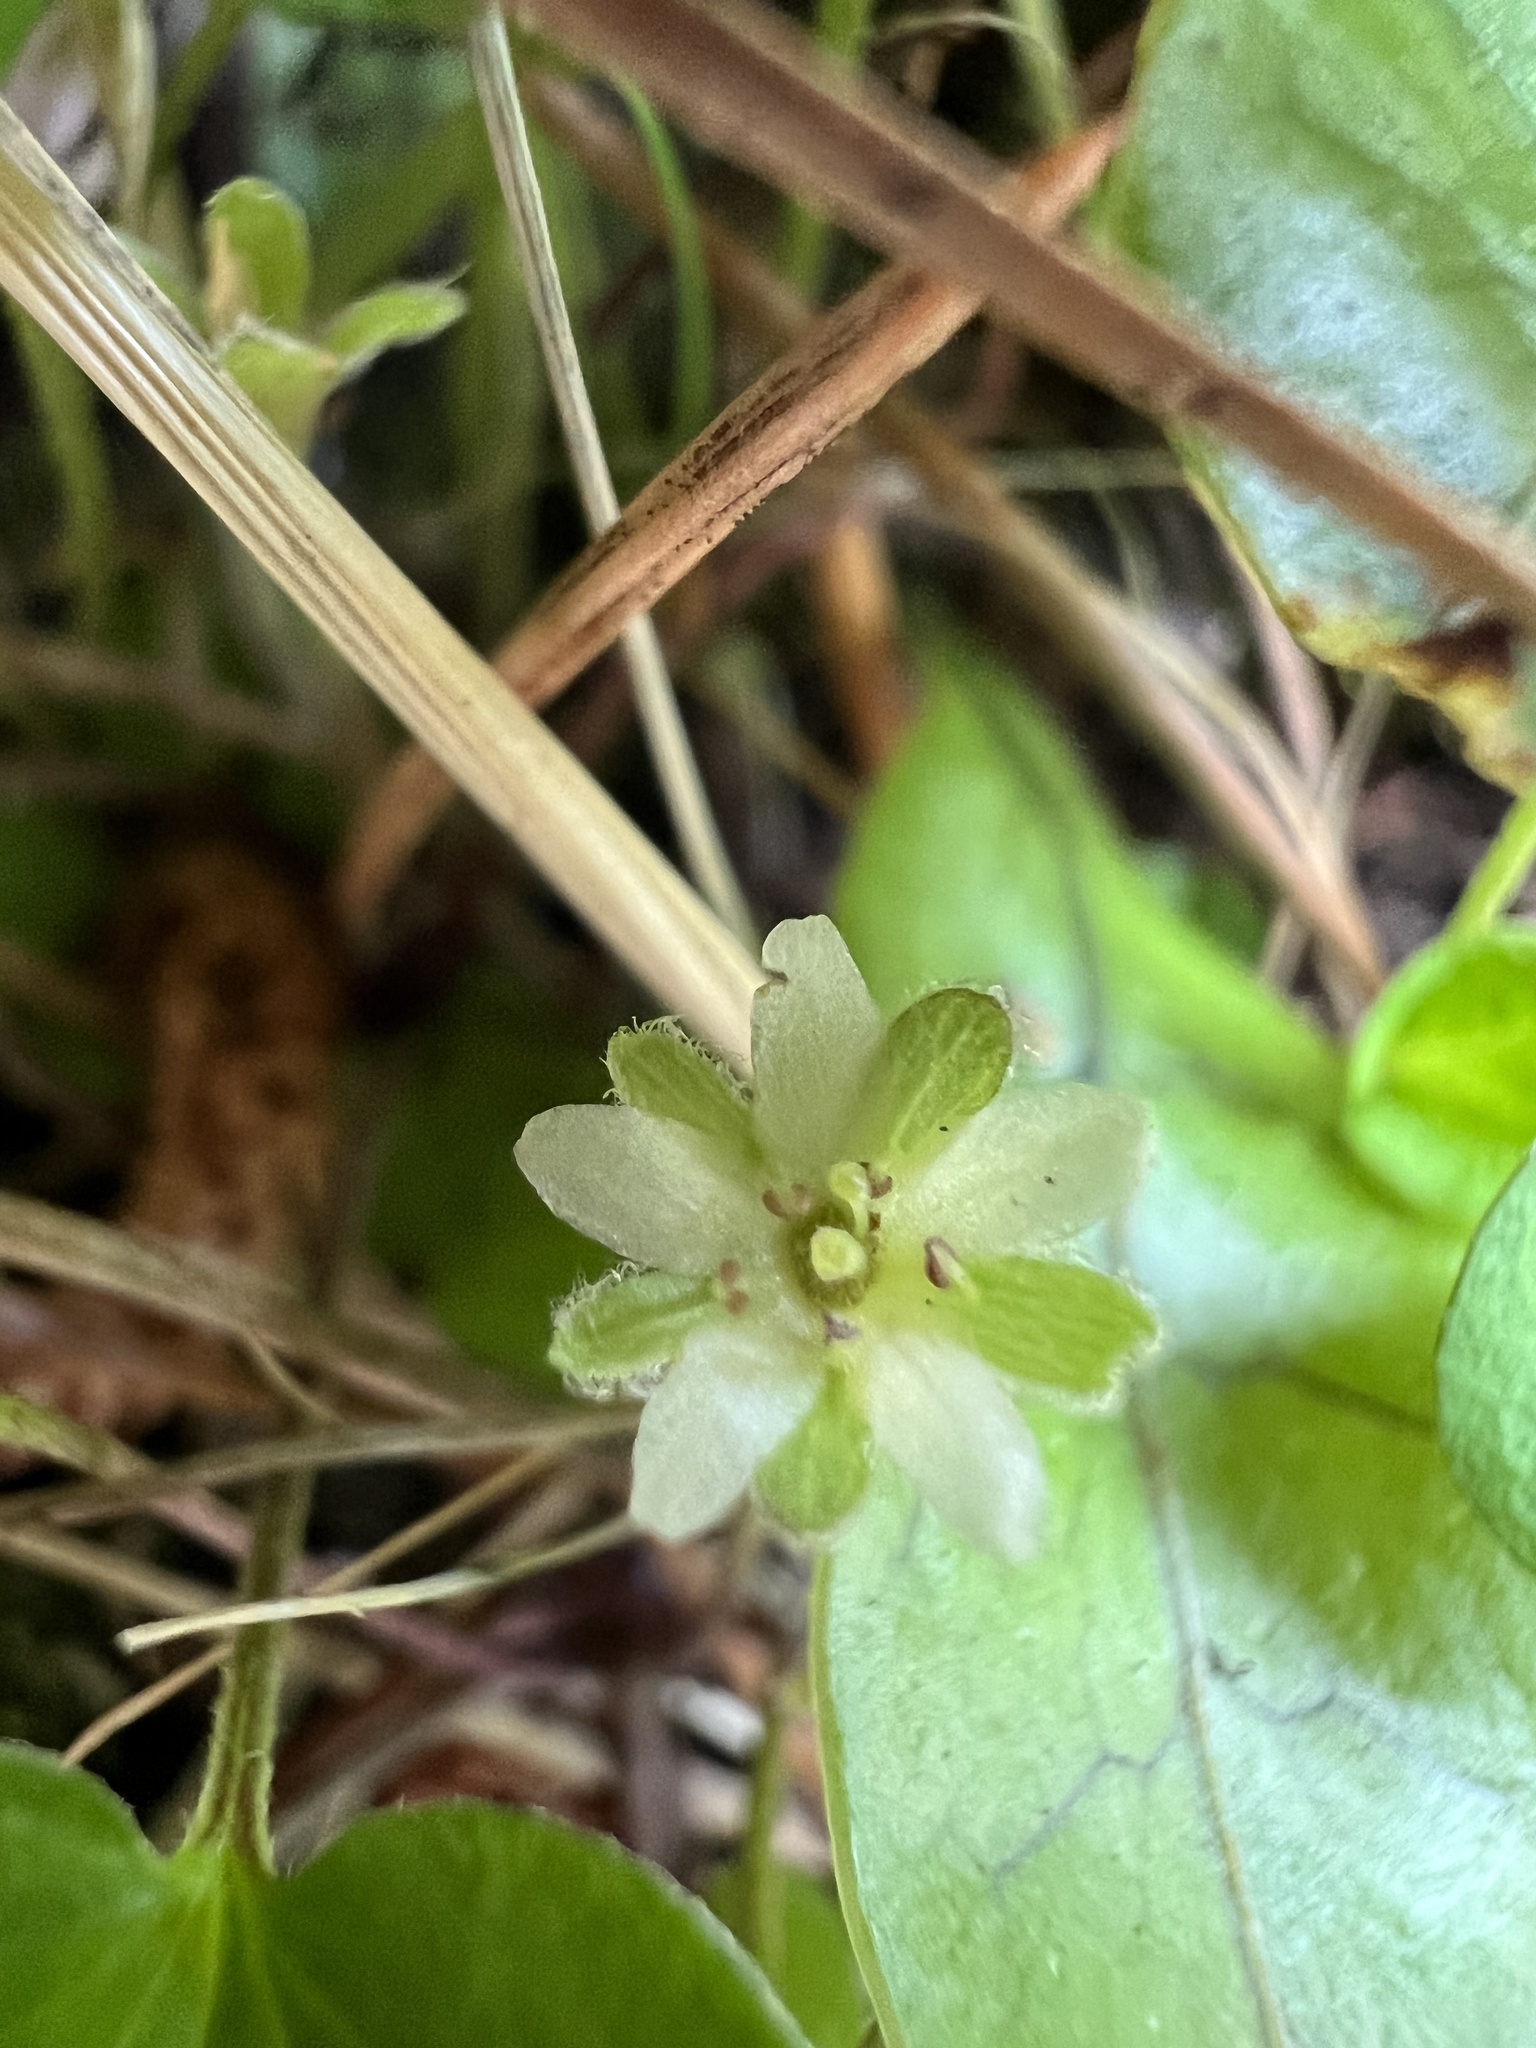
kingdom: Plantae
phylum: Tracheophyta
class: Magnoliopsida
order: Solanales
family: Convolvulaceae
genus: Dichondra
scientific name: Dichondra repens
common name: Kidneyweed
